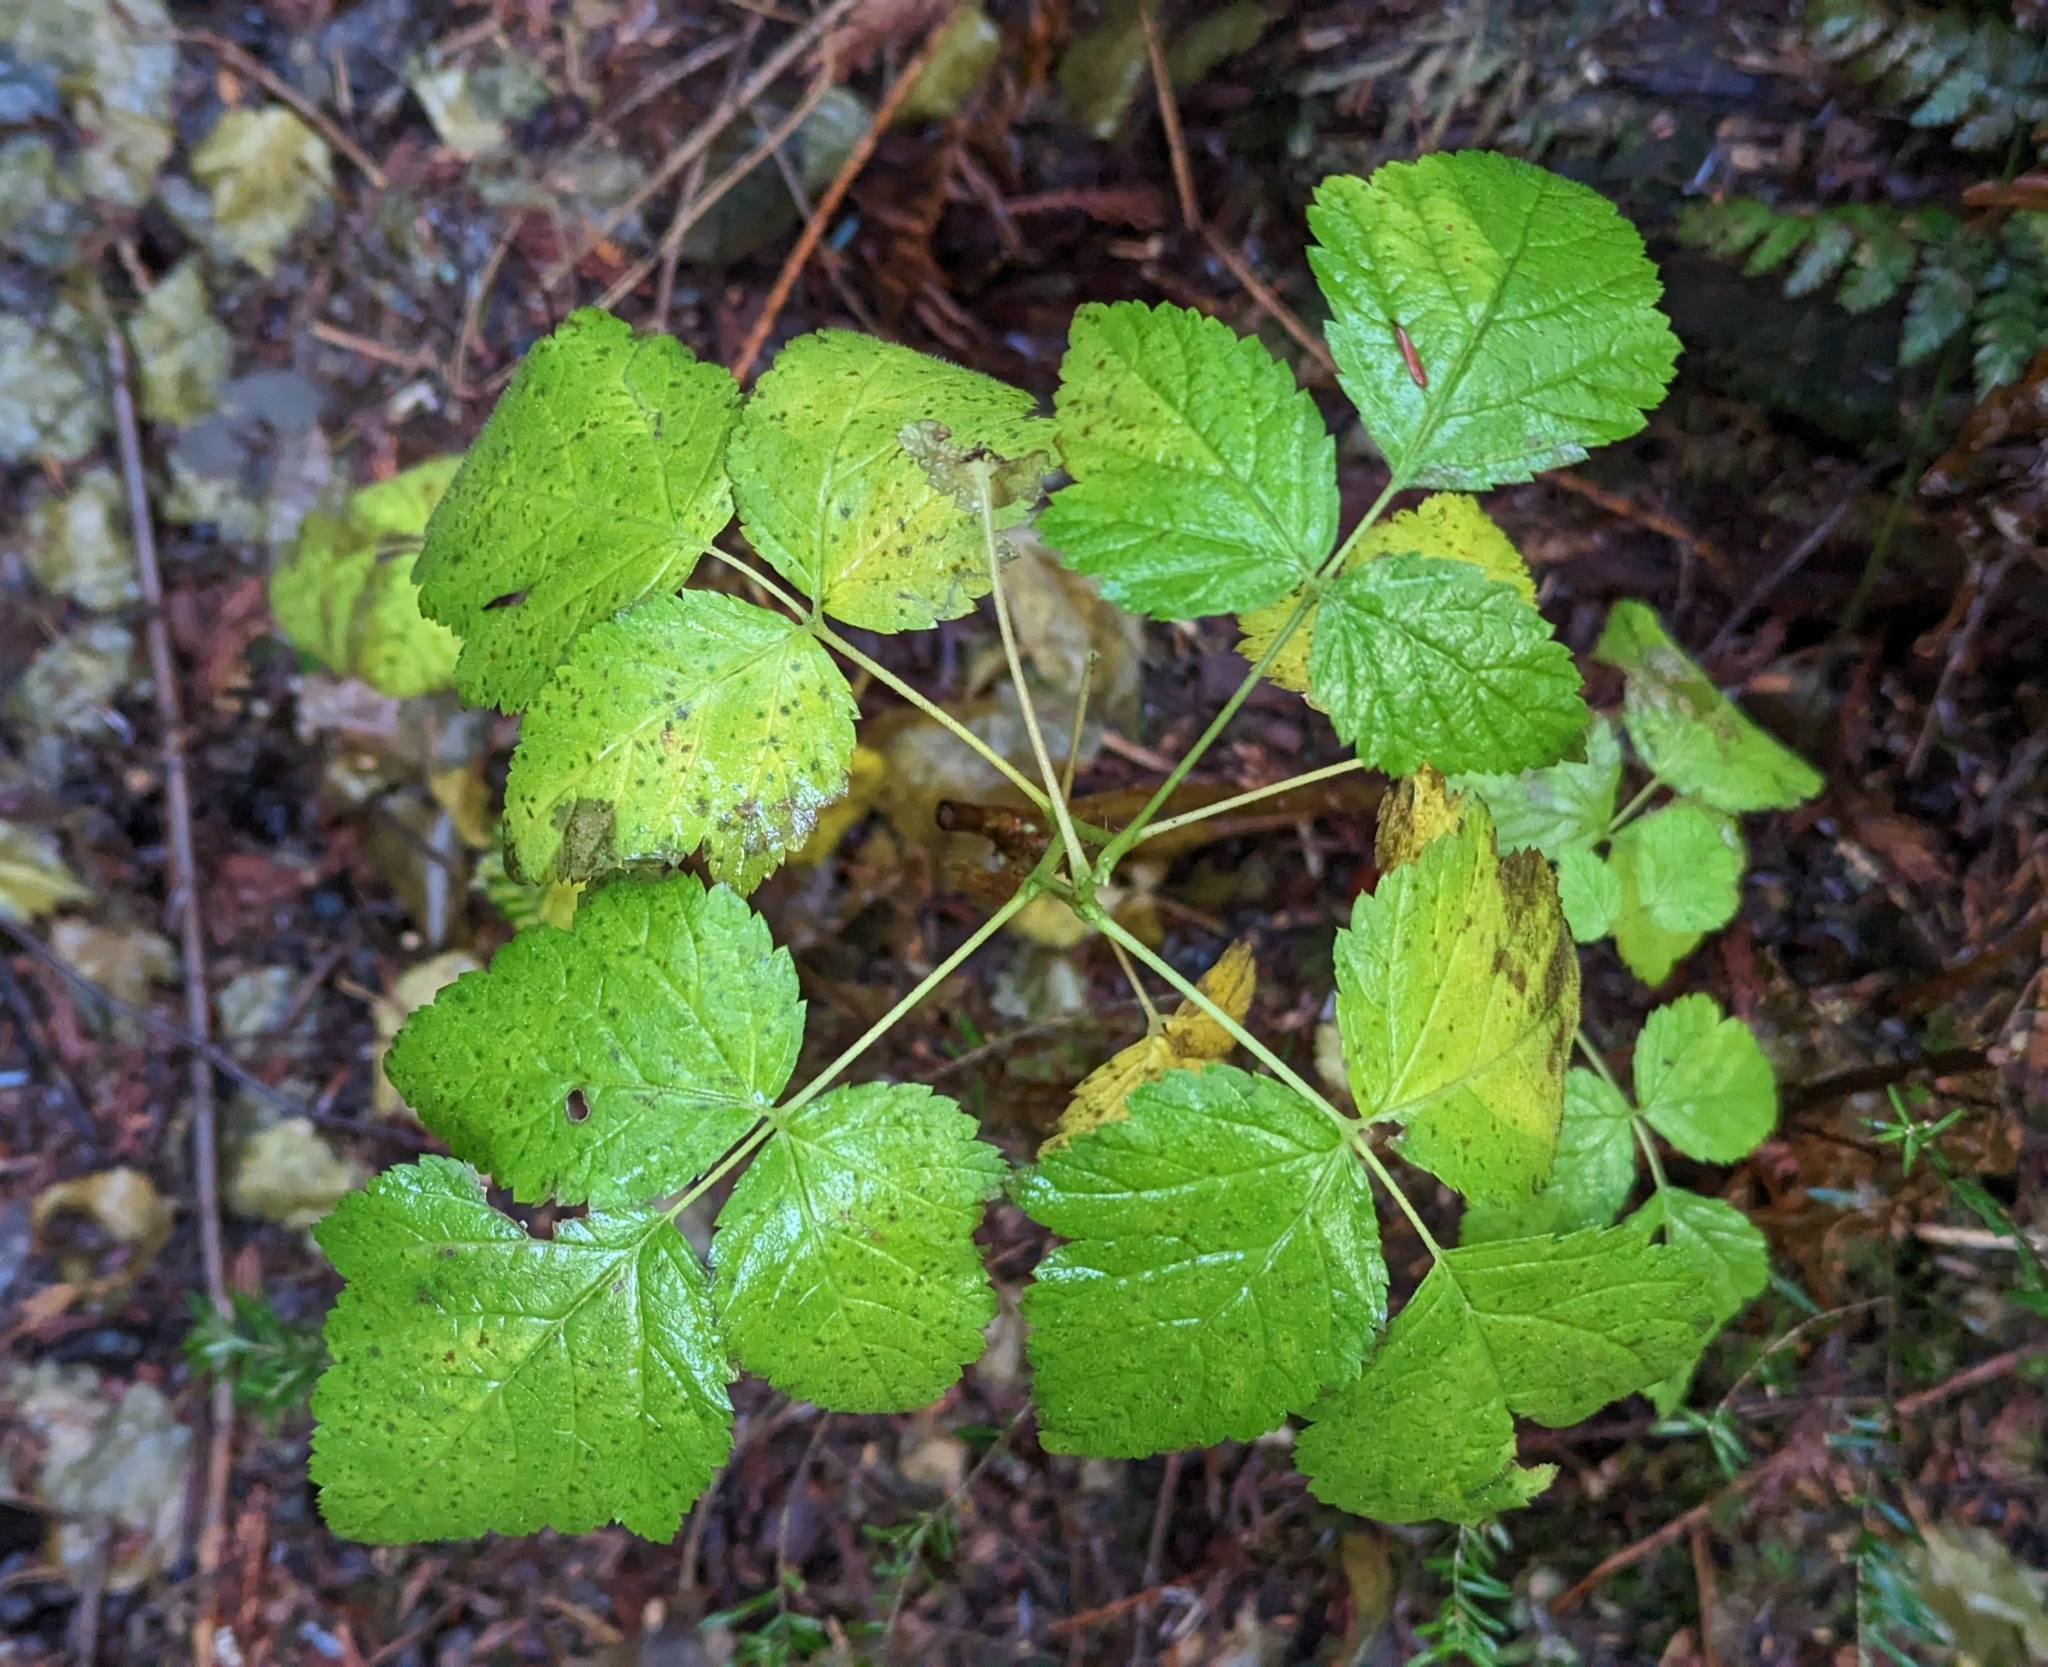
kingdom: Plantae
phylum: Tracheophyta
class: Magnoliopsida
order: Rosales
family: Rosaceae
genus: Rubus
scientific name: Rubus spectabilis
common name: Salmonberry
